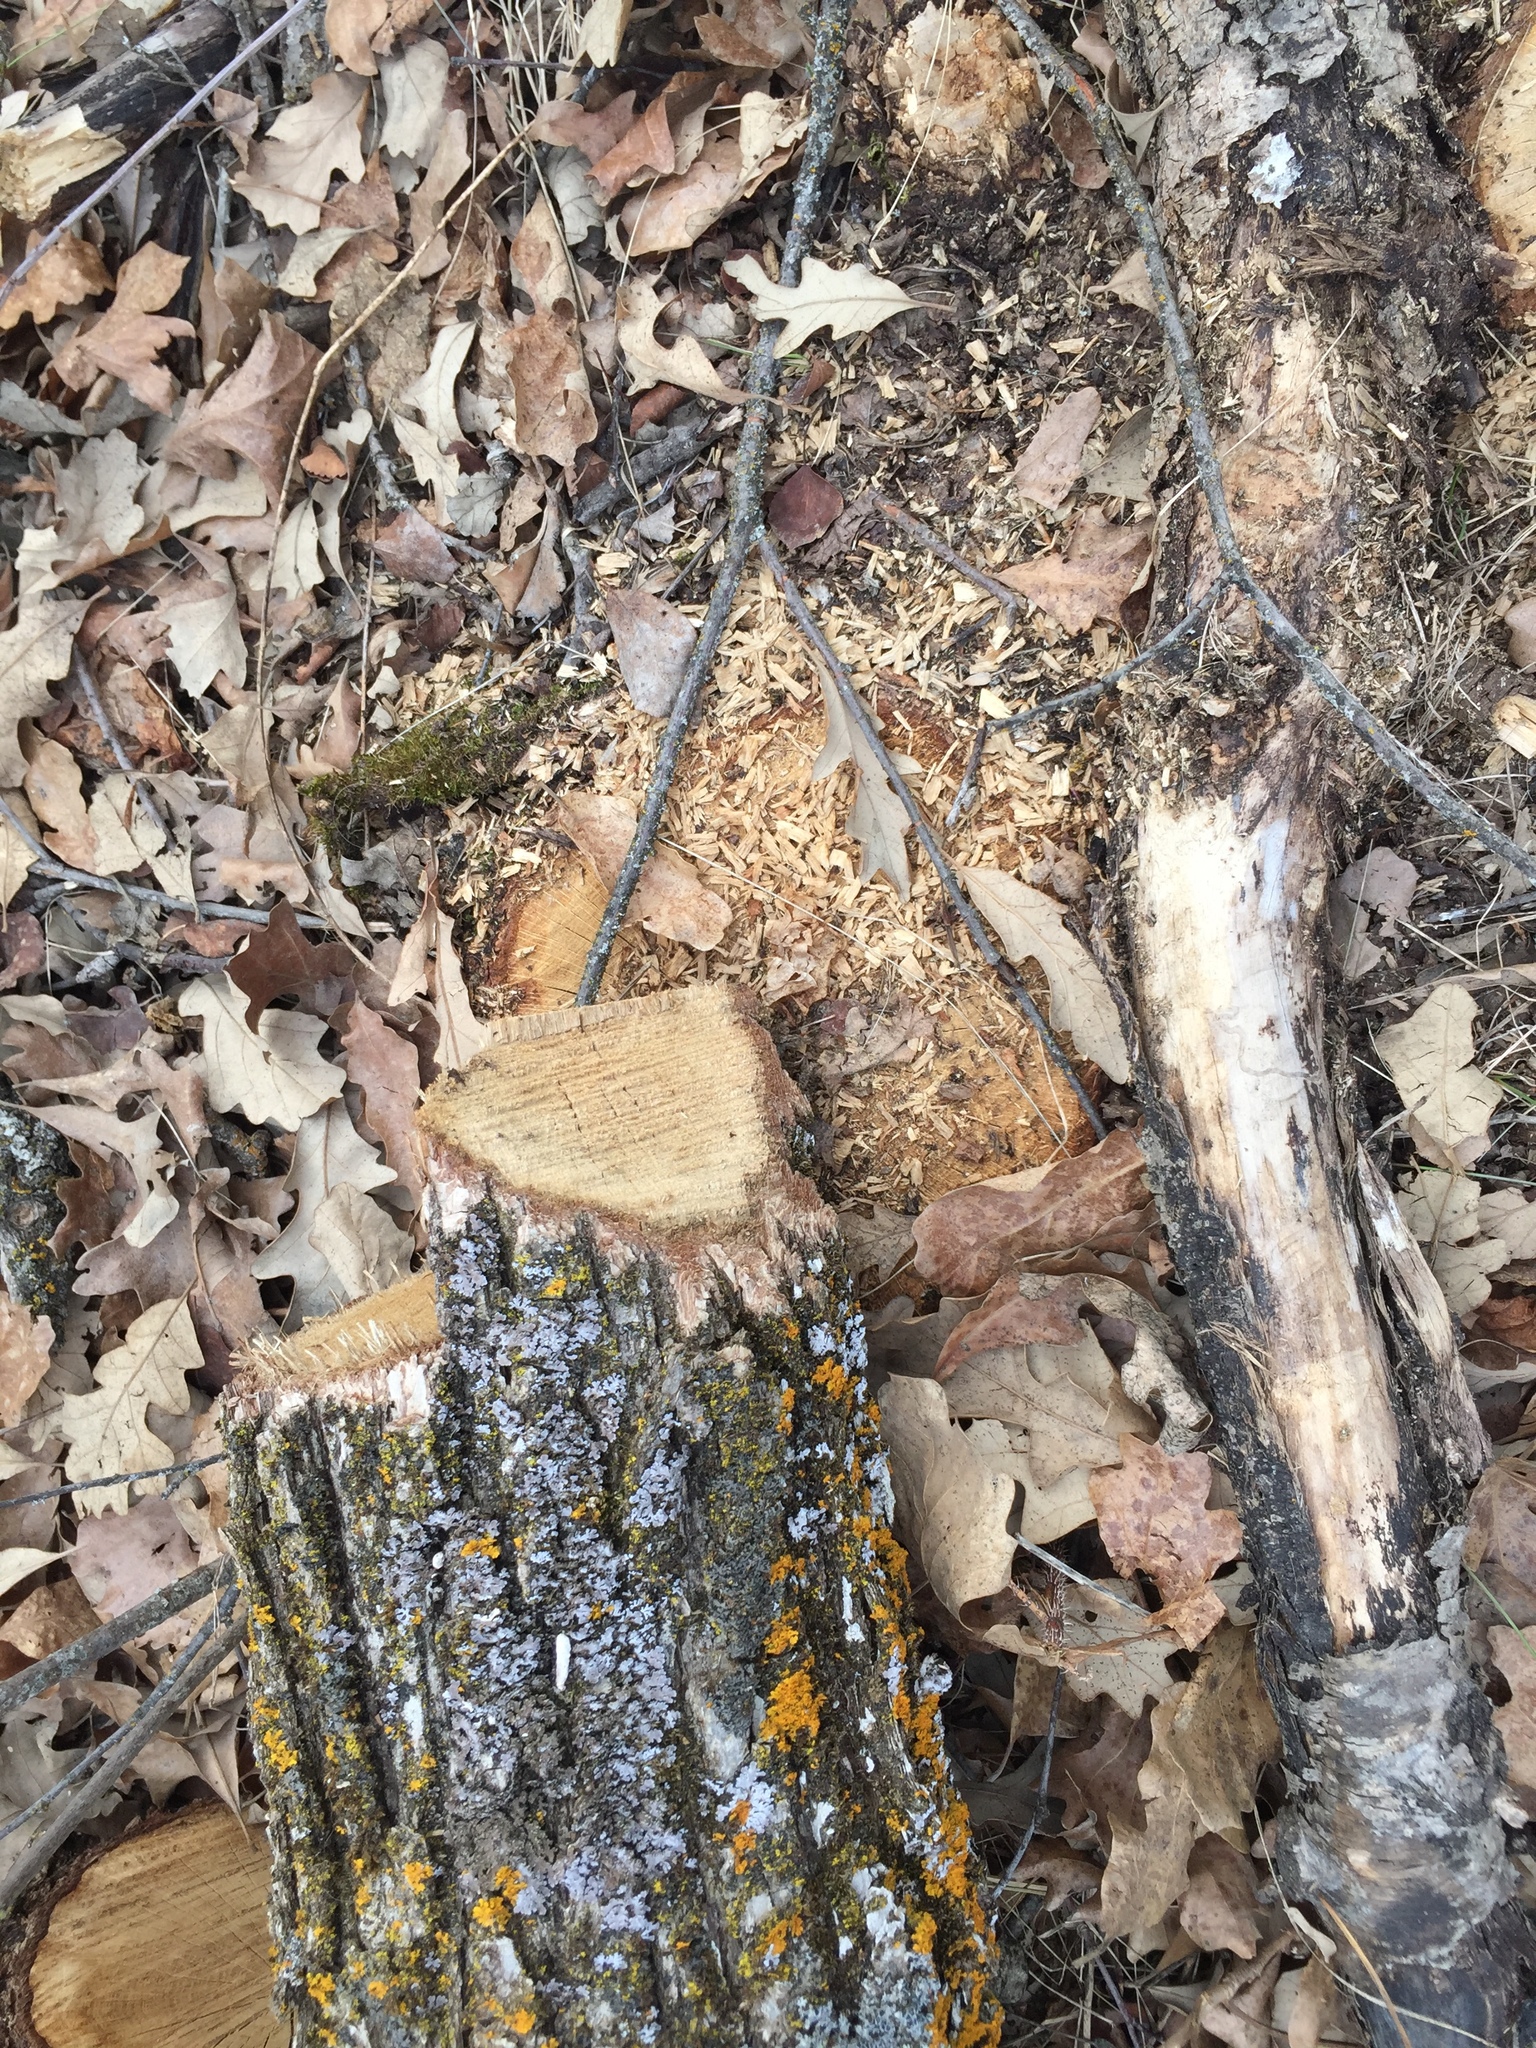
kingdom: Plantae
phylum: Tracheophyta
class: Magnoliopsida
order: Fagales
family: Fagaceae
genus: Quercus
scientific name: Quercus macrocarpa
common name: Bur oak
